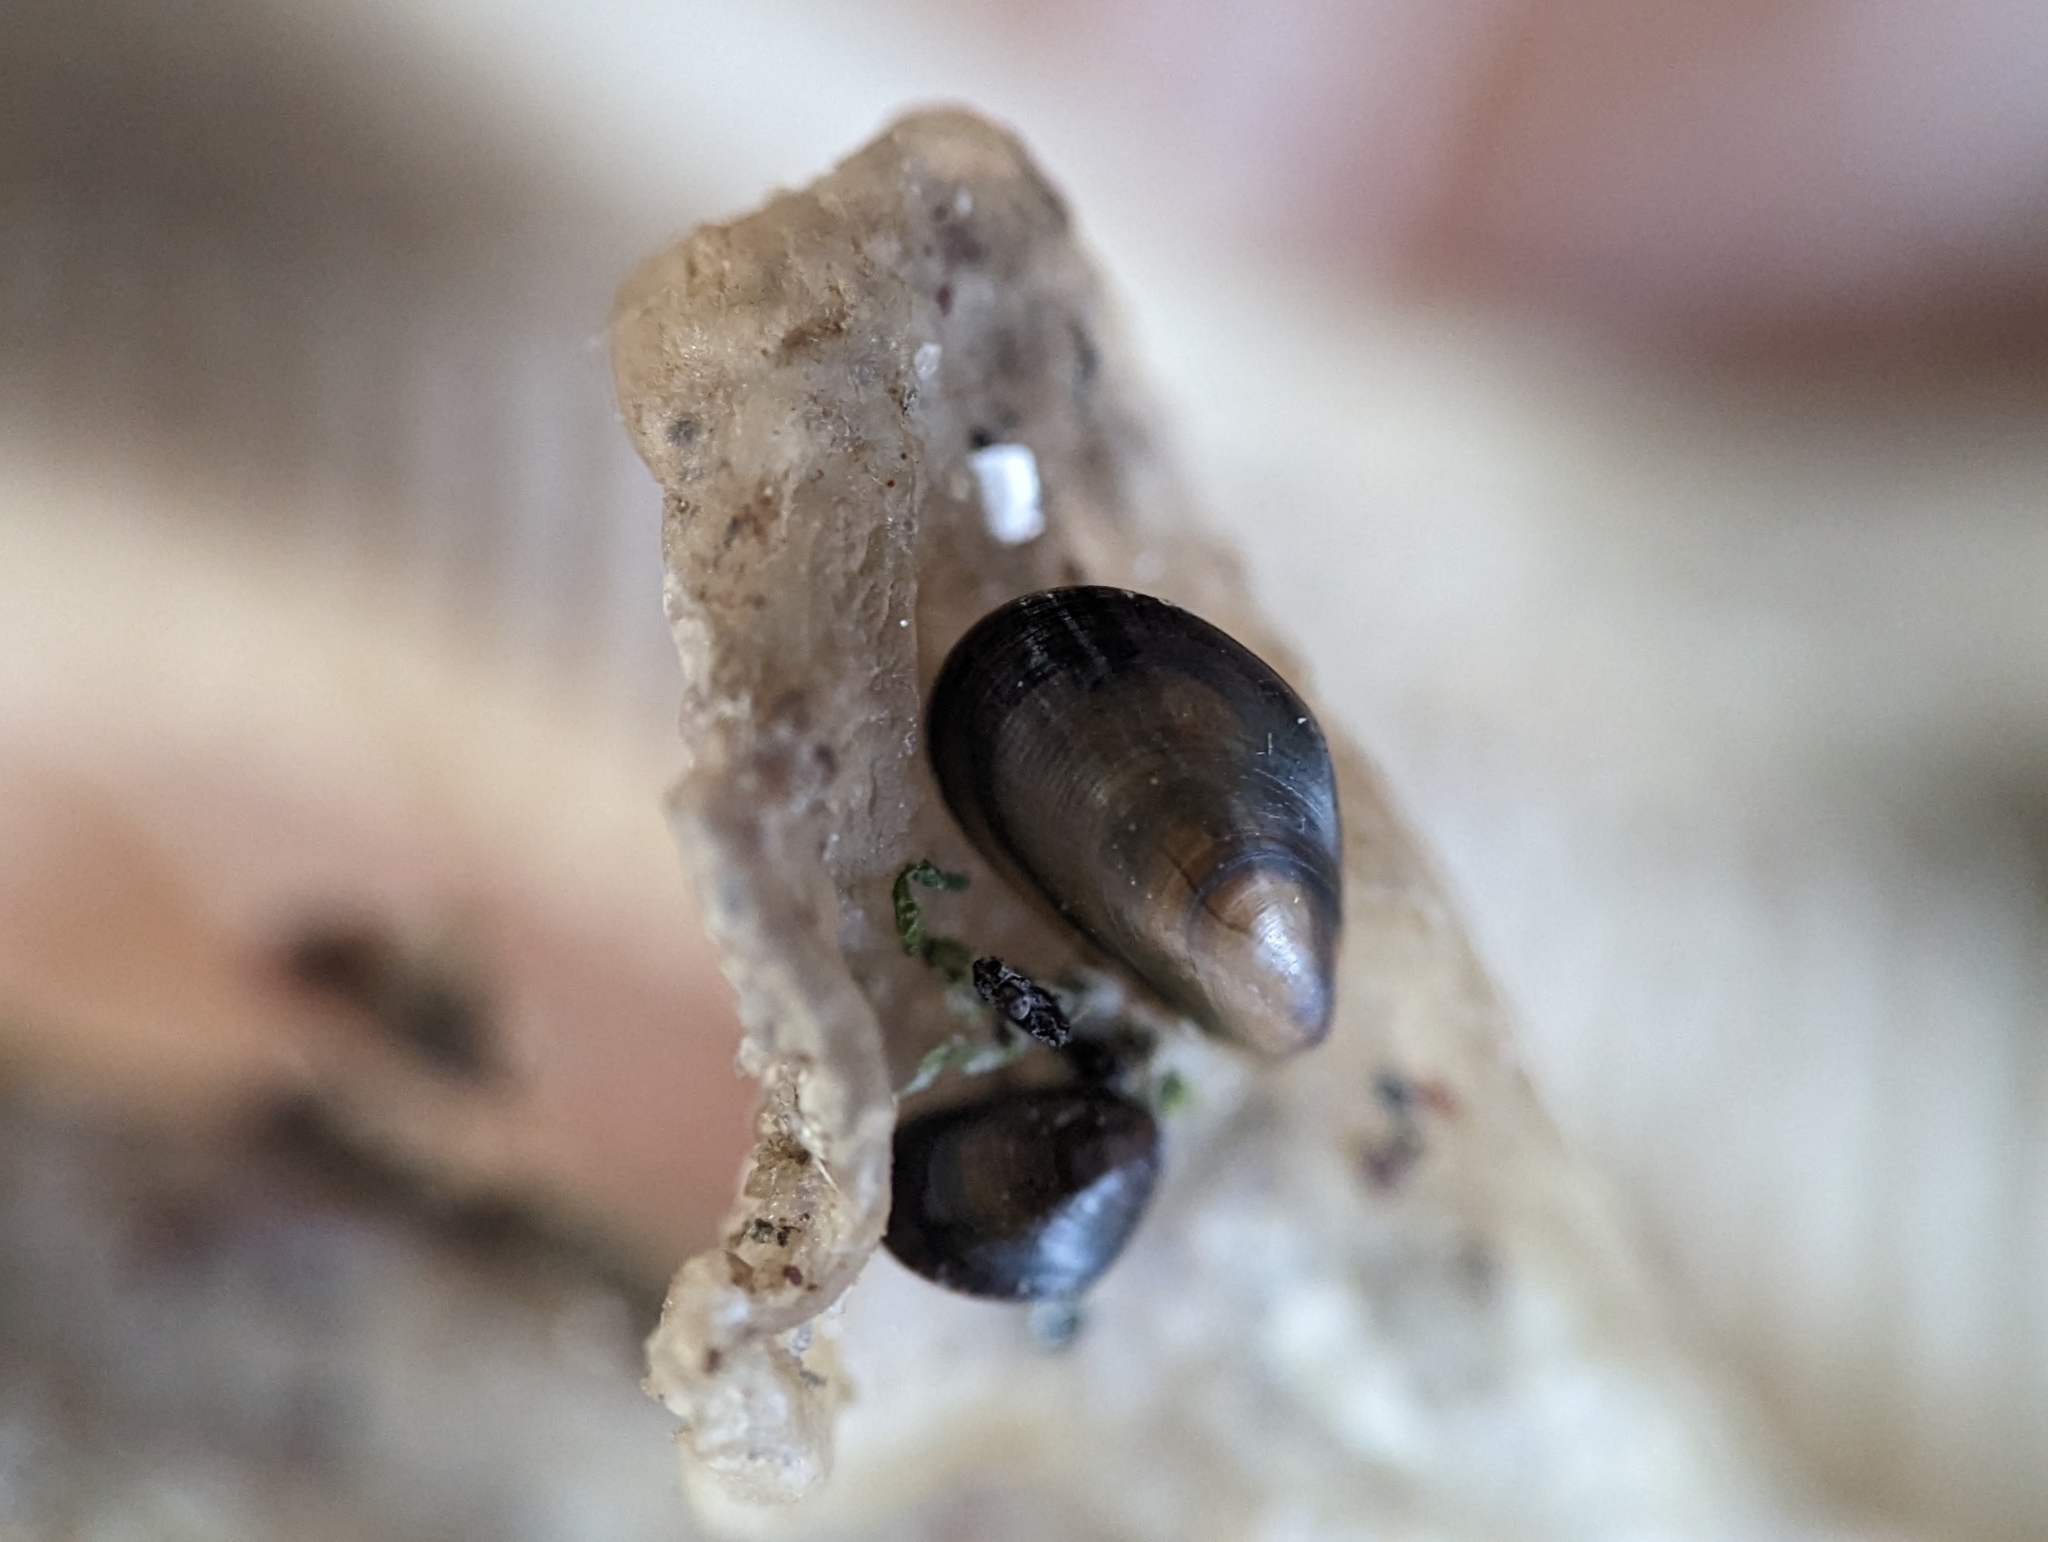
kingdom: Animalia
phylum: Mollusca
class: Bivalvia
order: Mytilida
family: Mytilidae
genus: Mytilus
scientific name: Mytilus edulis
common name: Blue mussel
